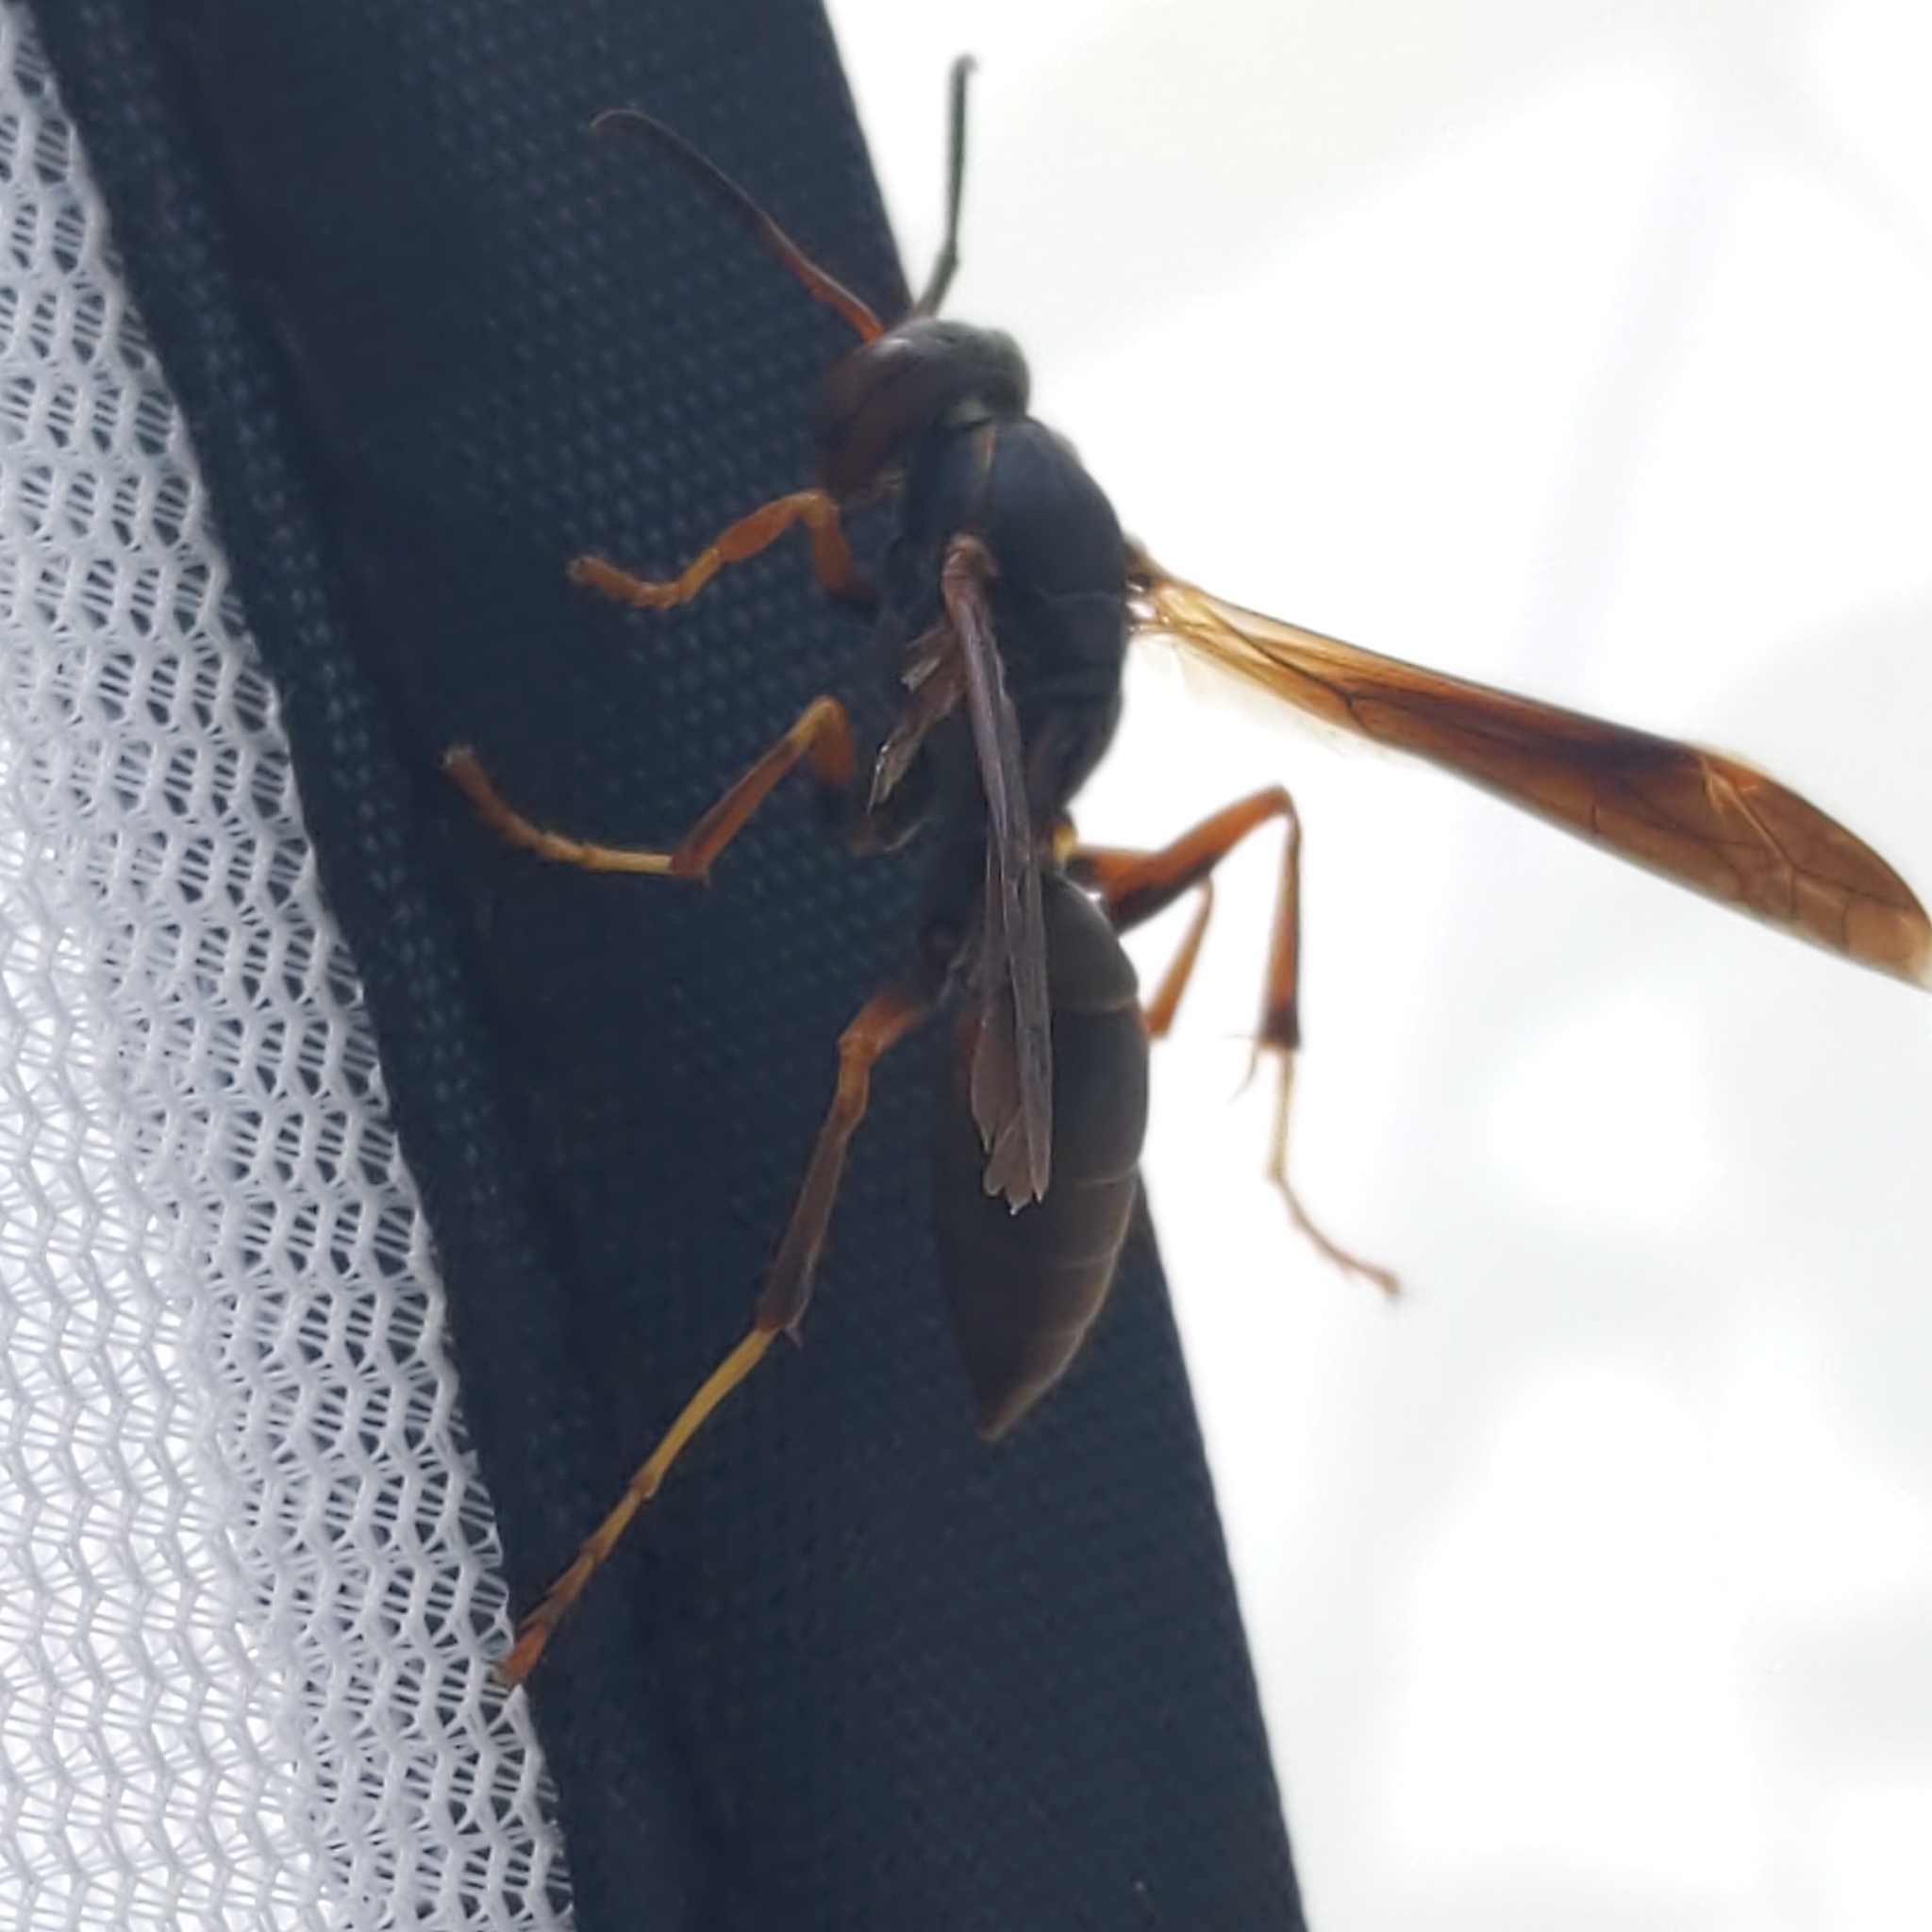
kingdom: Animalia
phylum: Arthropoda
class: Insecta
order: Hymenoptera
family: Vespidae
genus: Fuscopolistes
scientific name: Fuscopolistes
